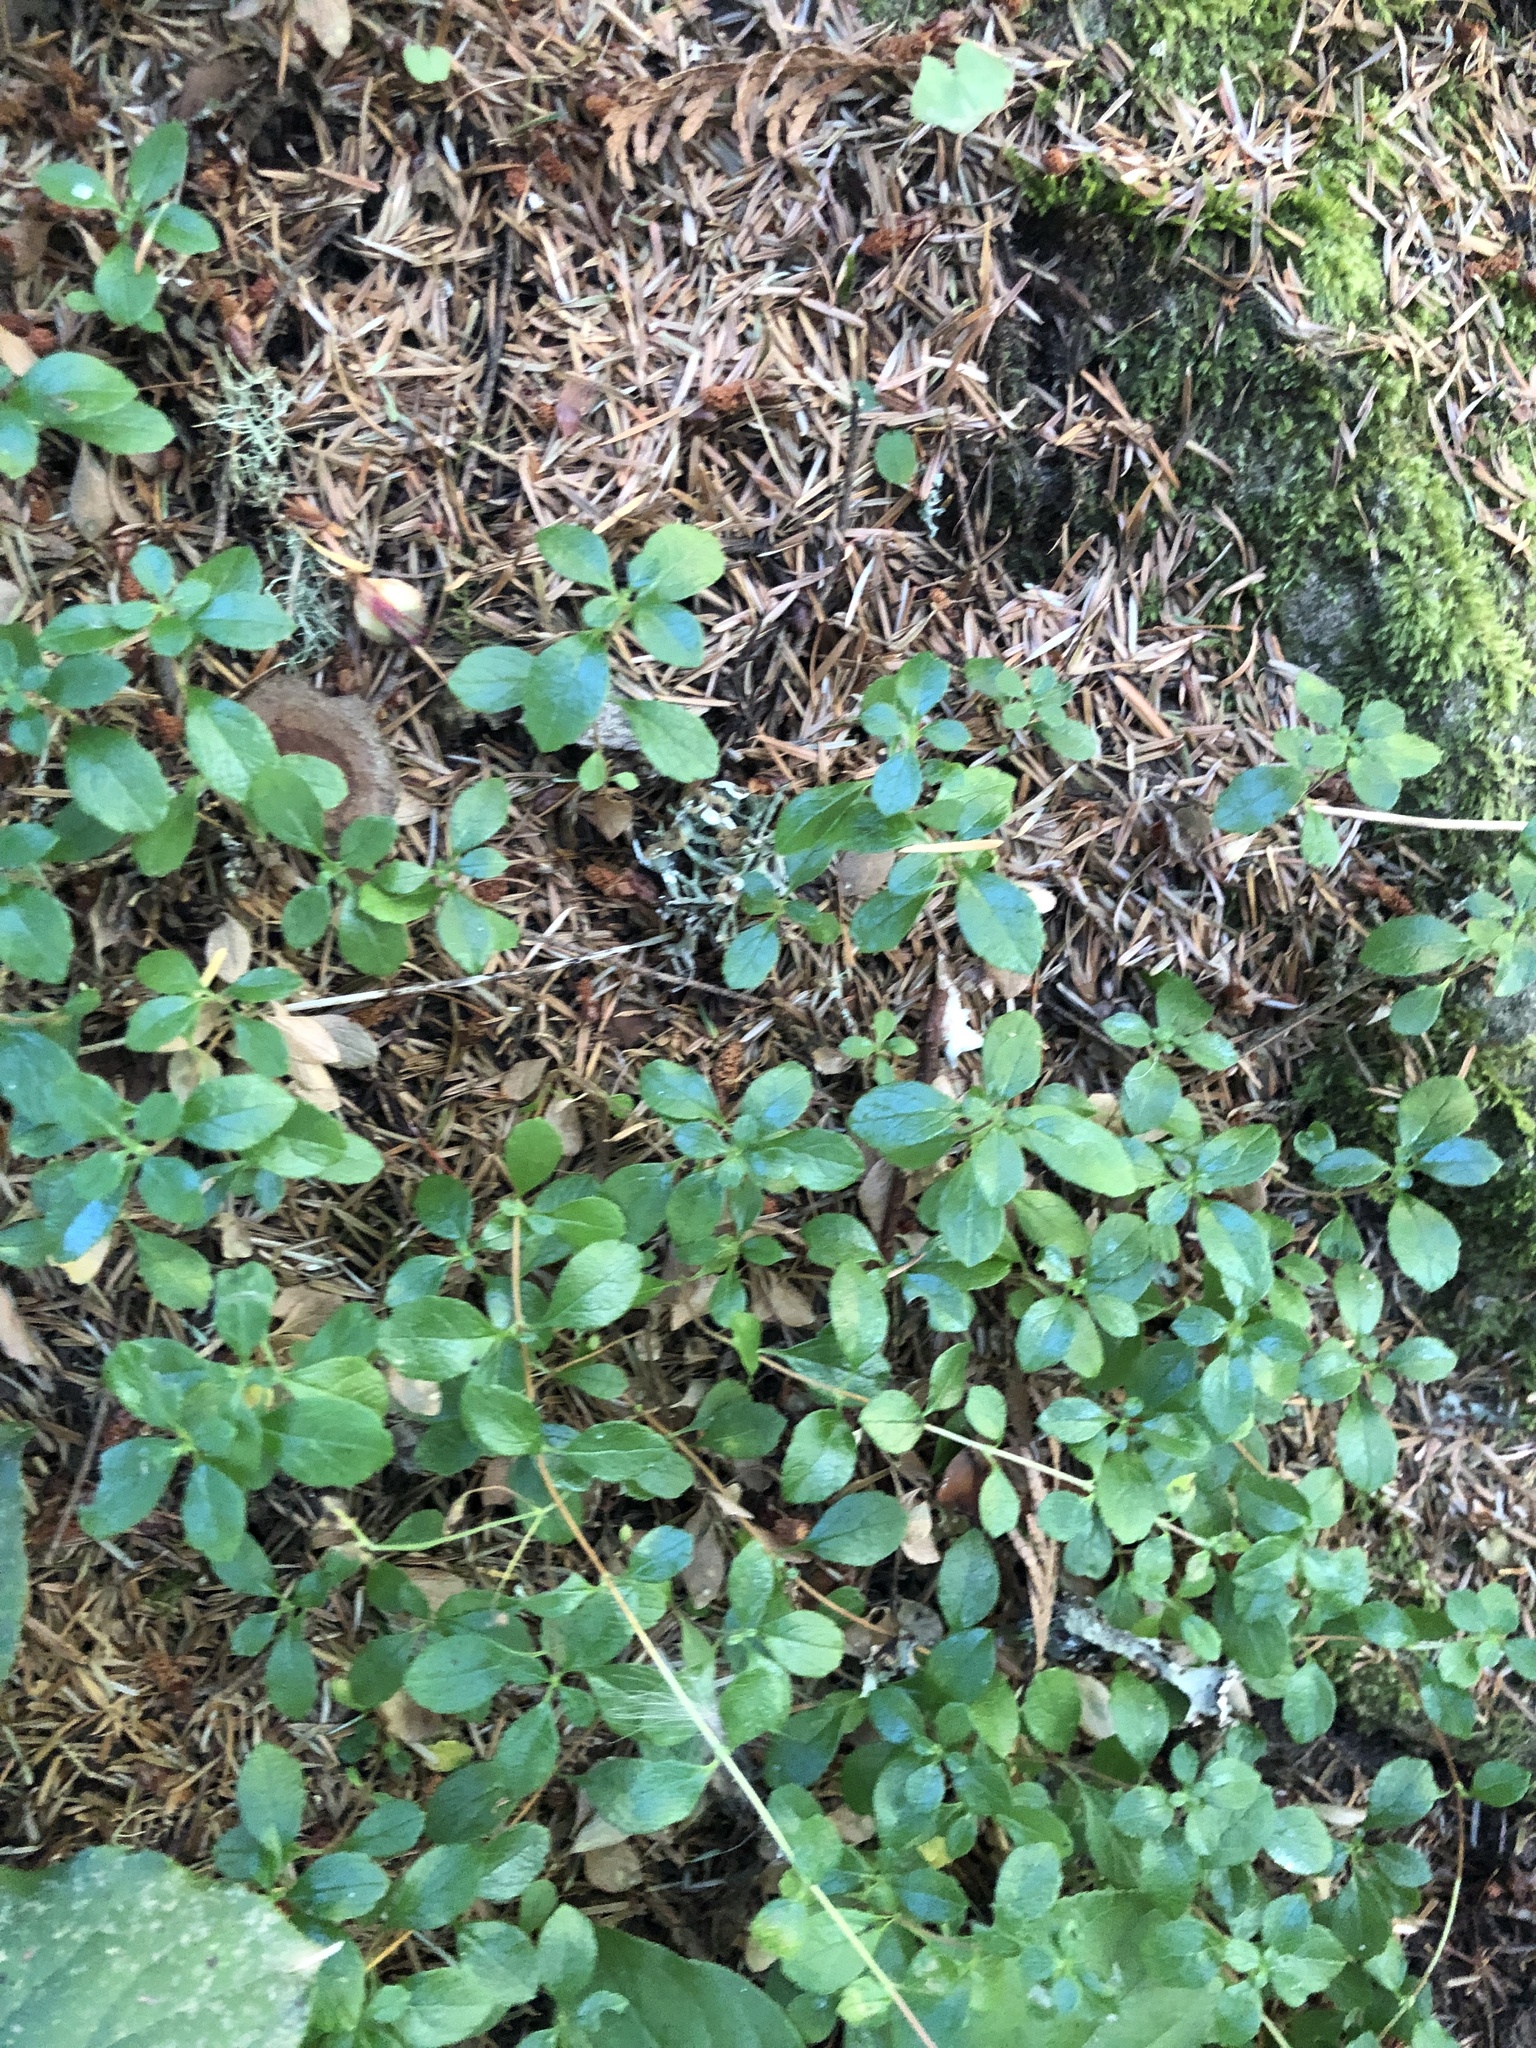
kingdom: Plantae
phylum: Tracheophyta
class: Magnoliopsida
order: Dipsacales
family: Caprifoliaceae
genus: Linnaea
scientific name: Linnaea borealis
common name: Twinflower
